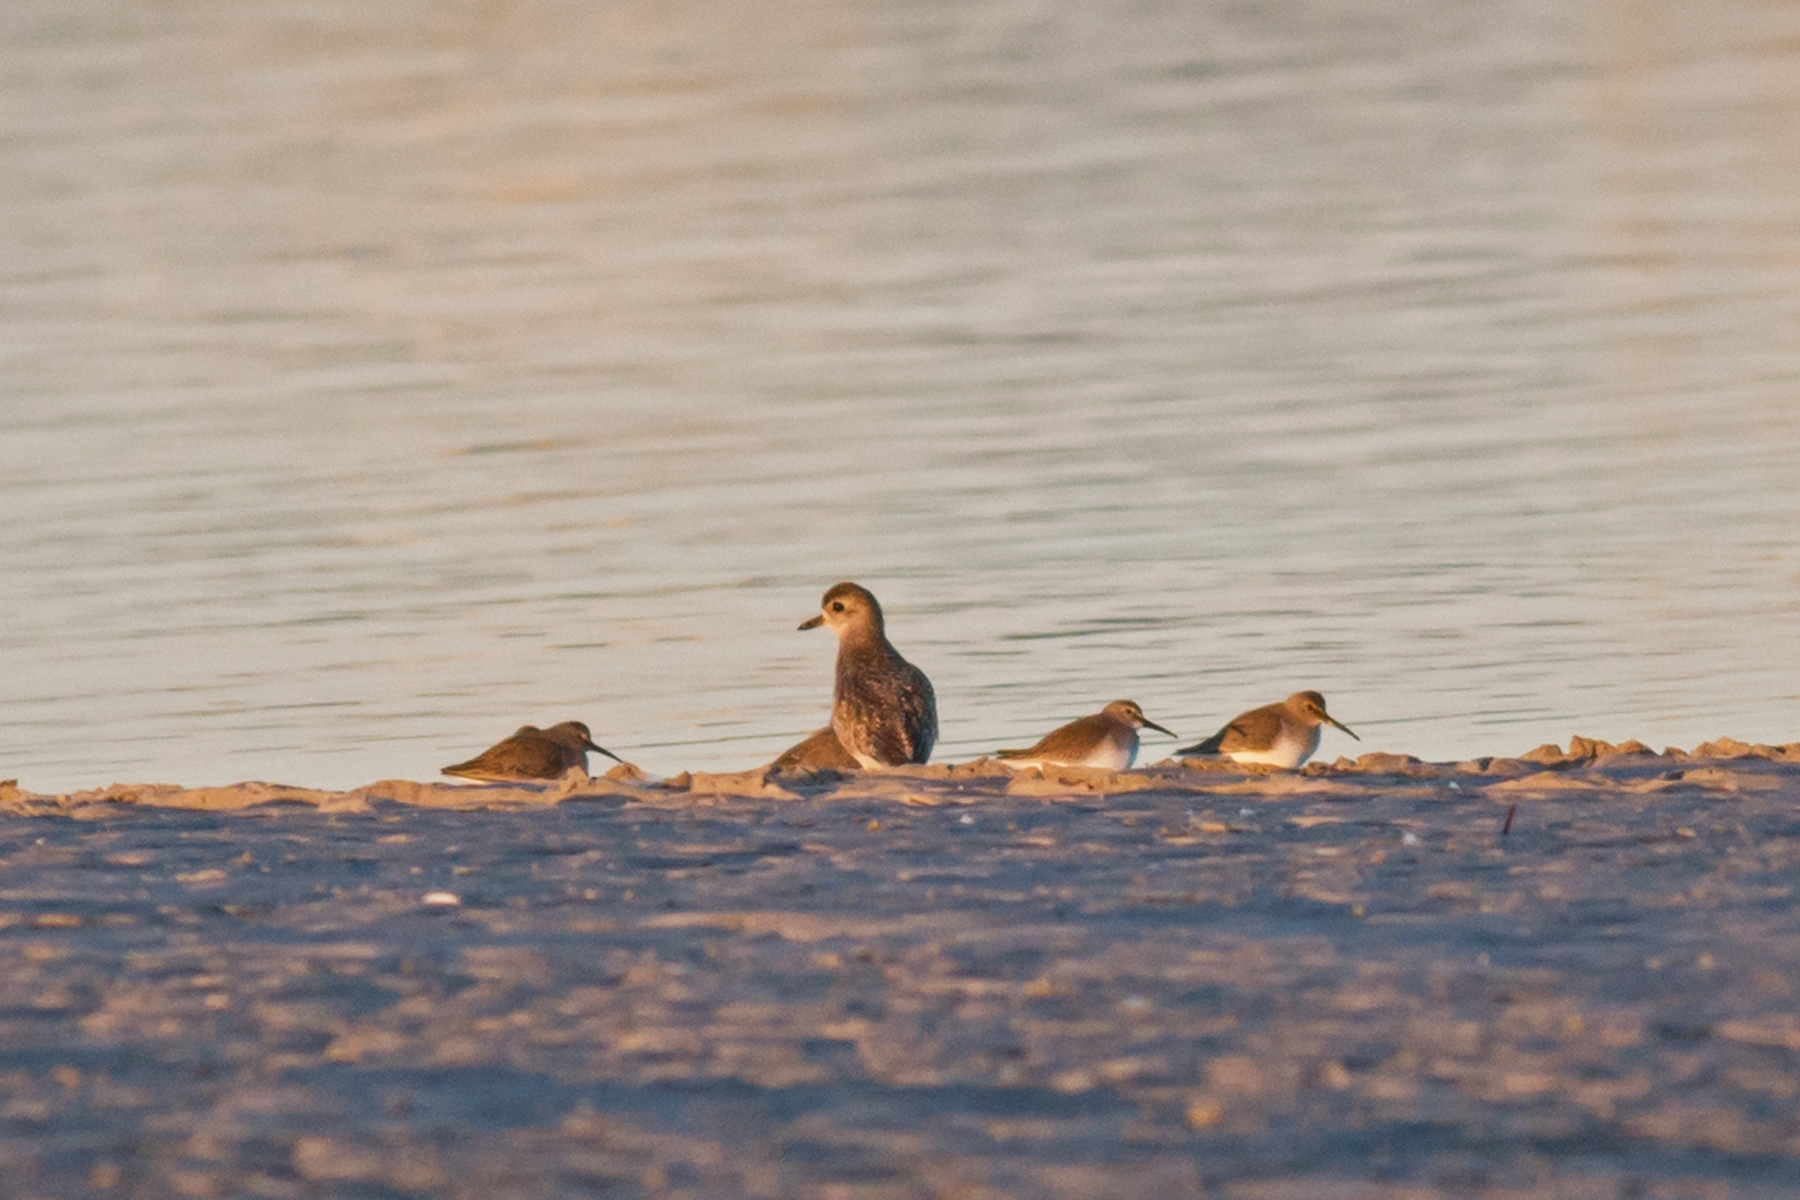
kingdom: Animalia
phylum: Chordata
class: Aves
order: Charadriiformes
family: Charadriidae
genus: Pluvialis
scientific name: Pluvialis squatarola
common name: Grey plover
